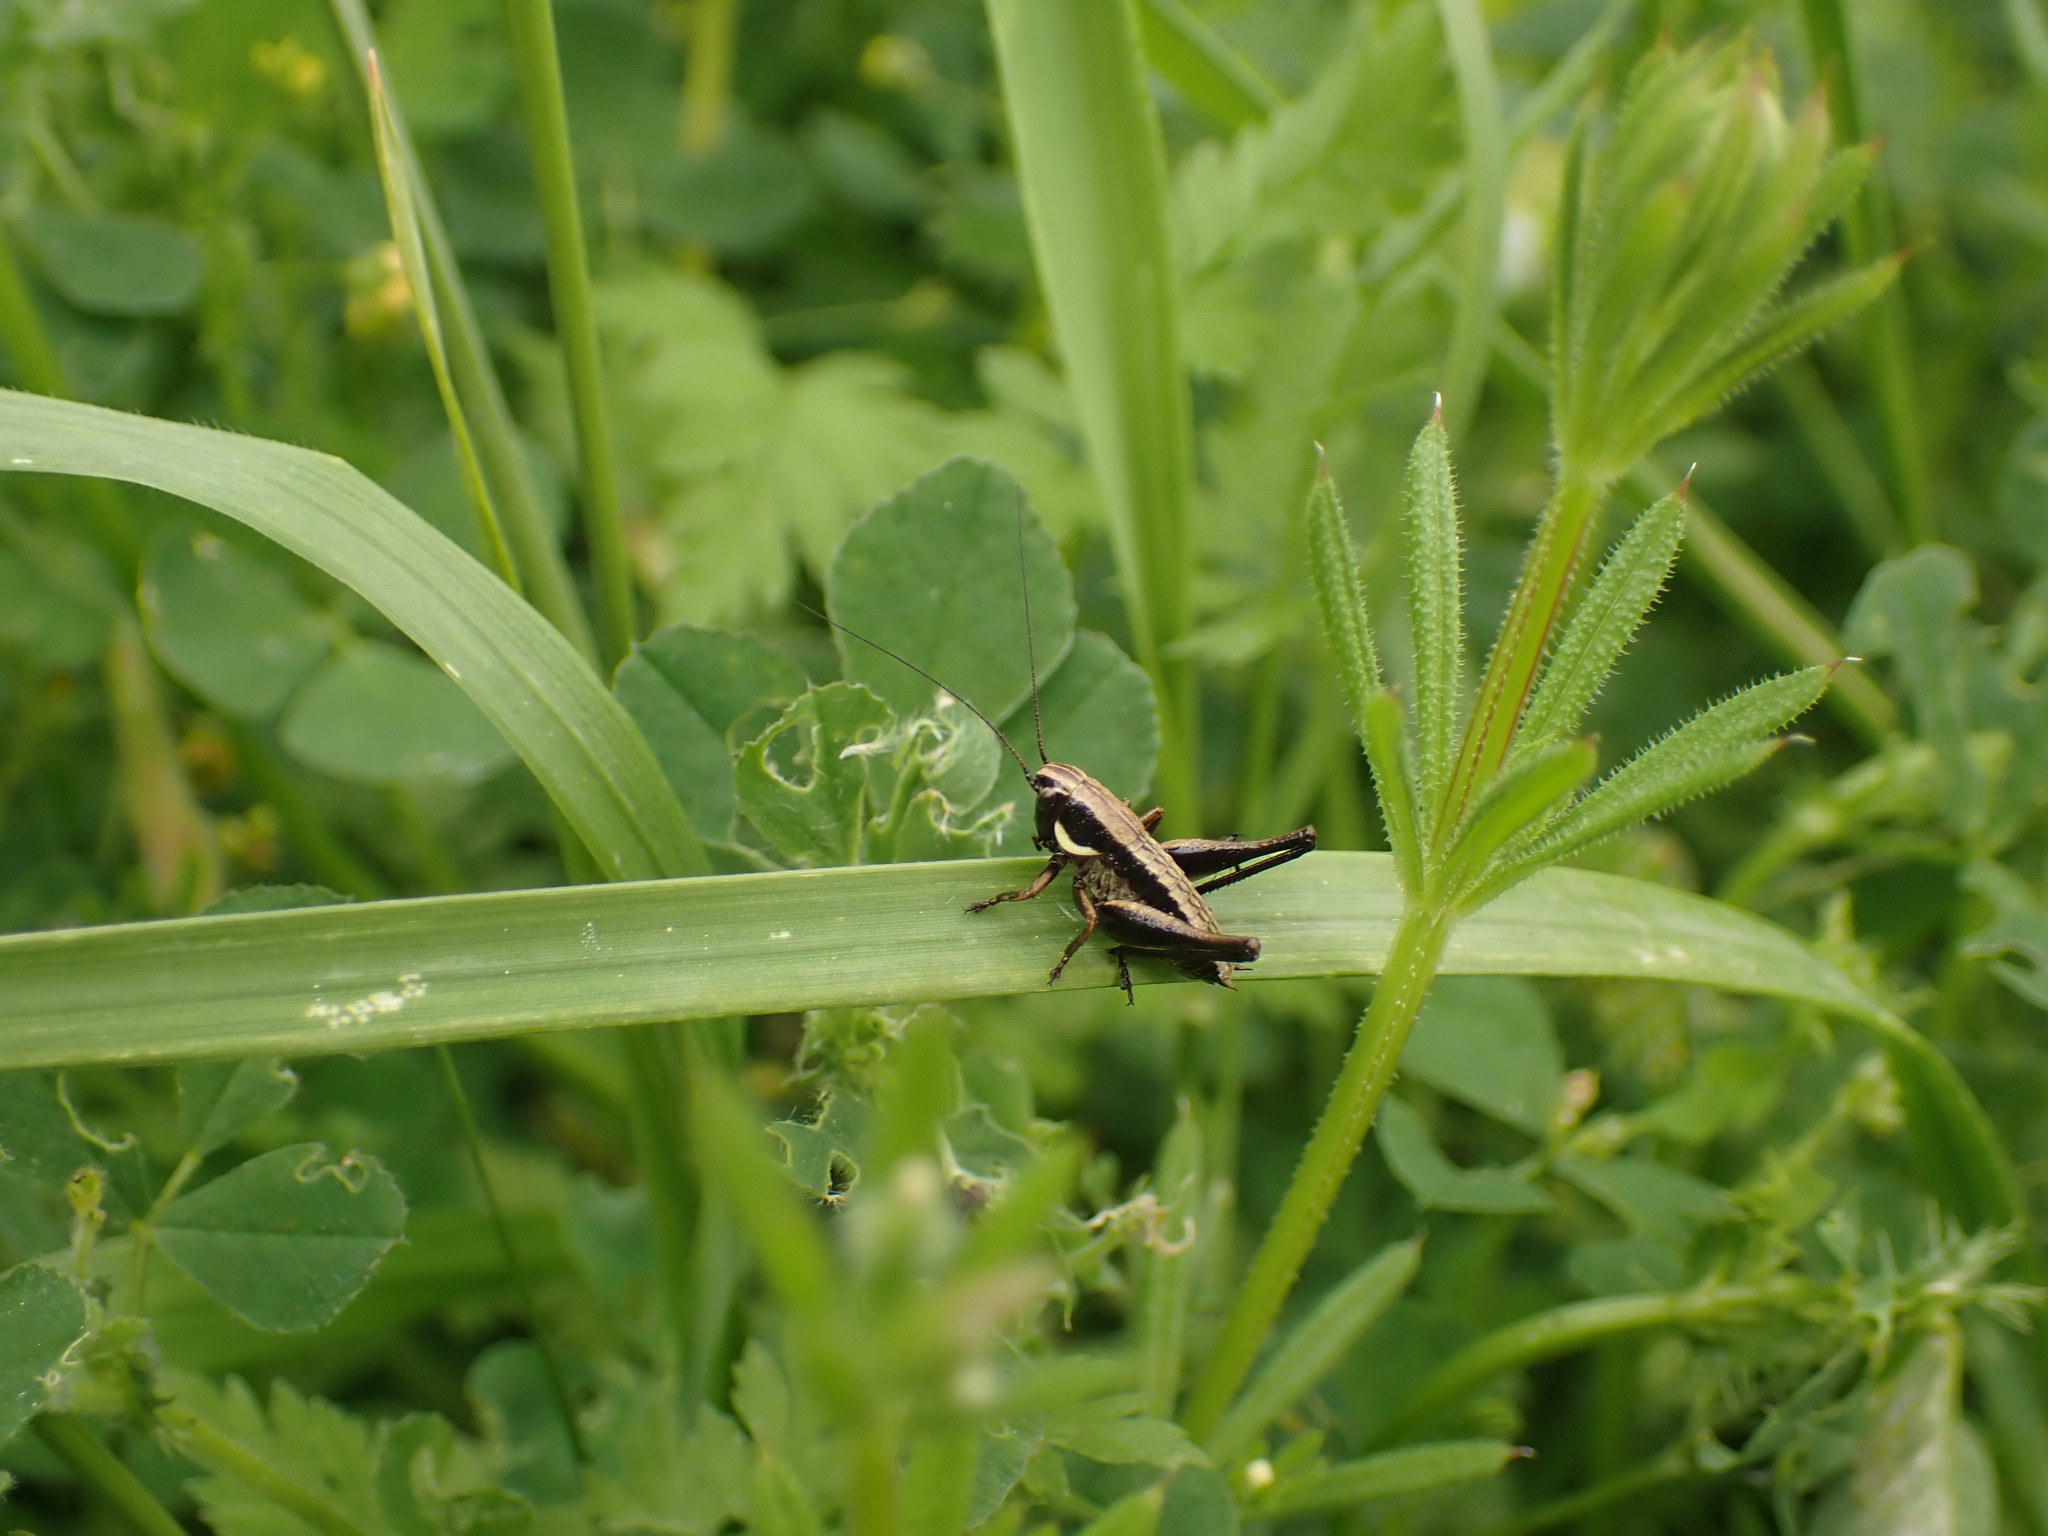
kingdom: Animalia
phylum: Arthropoda
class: Insecta
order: Orthoptera
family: Tettigoniidae
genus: Pholidoptera
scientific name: Pholidoptera femorata
